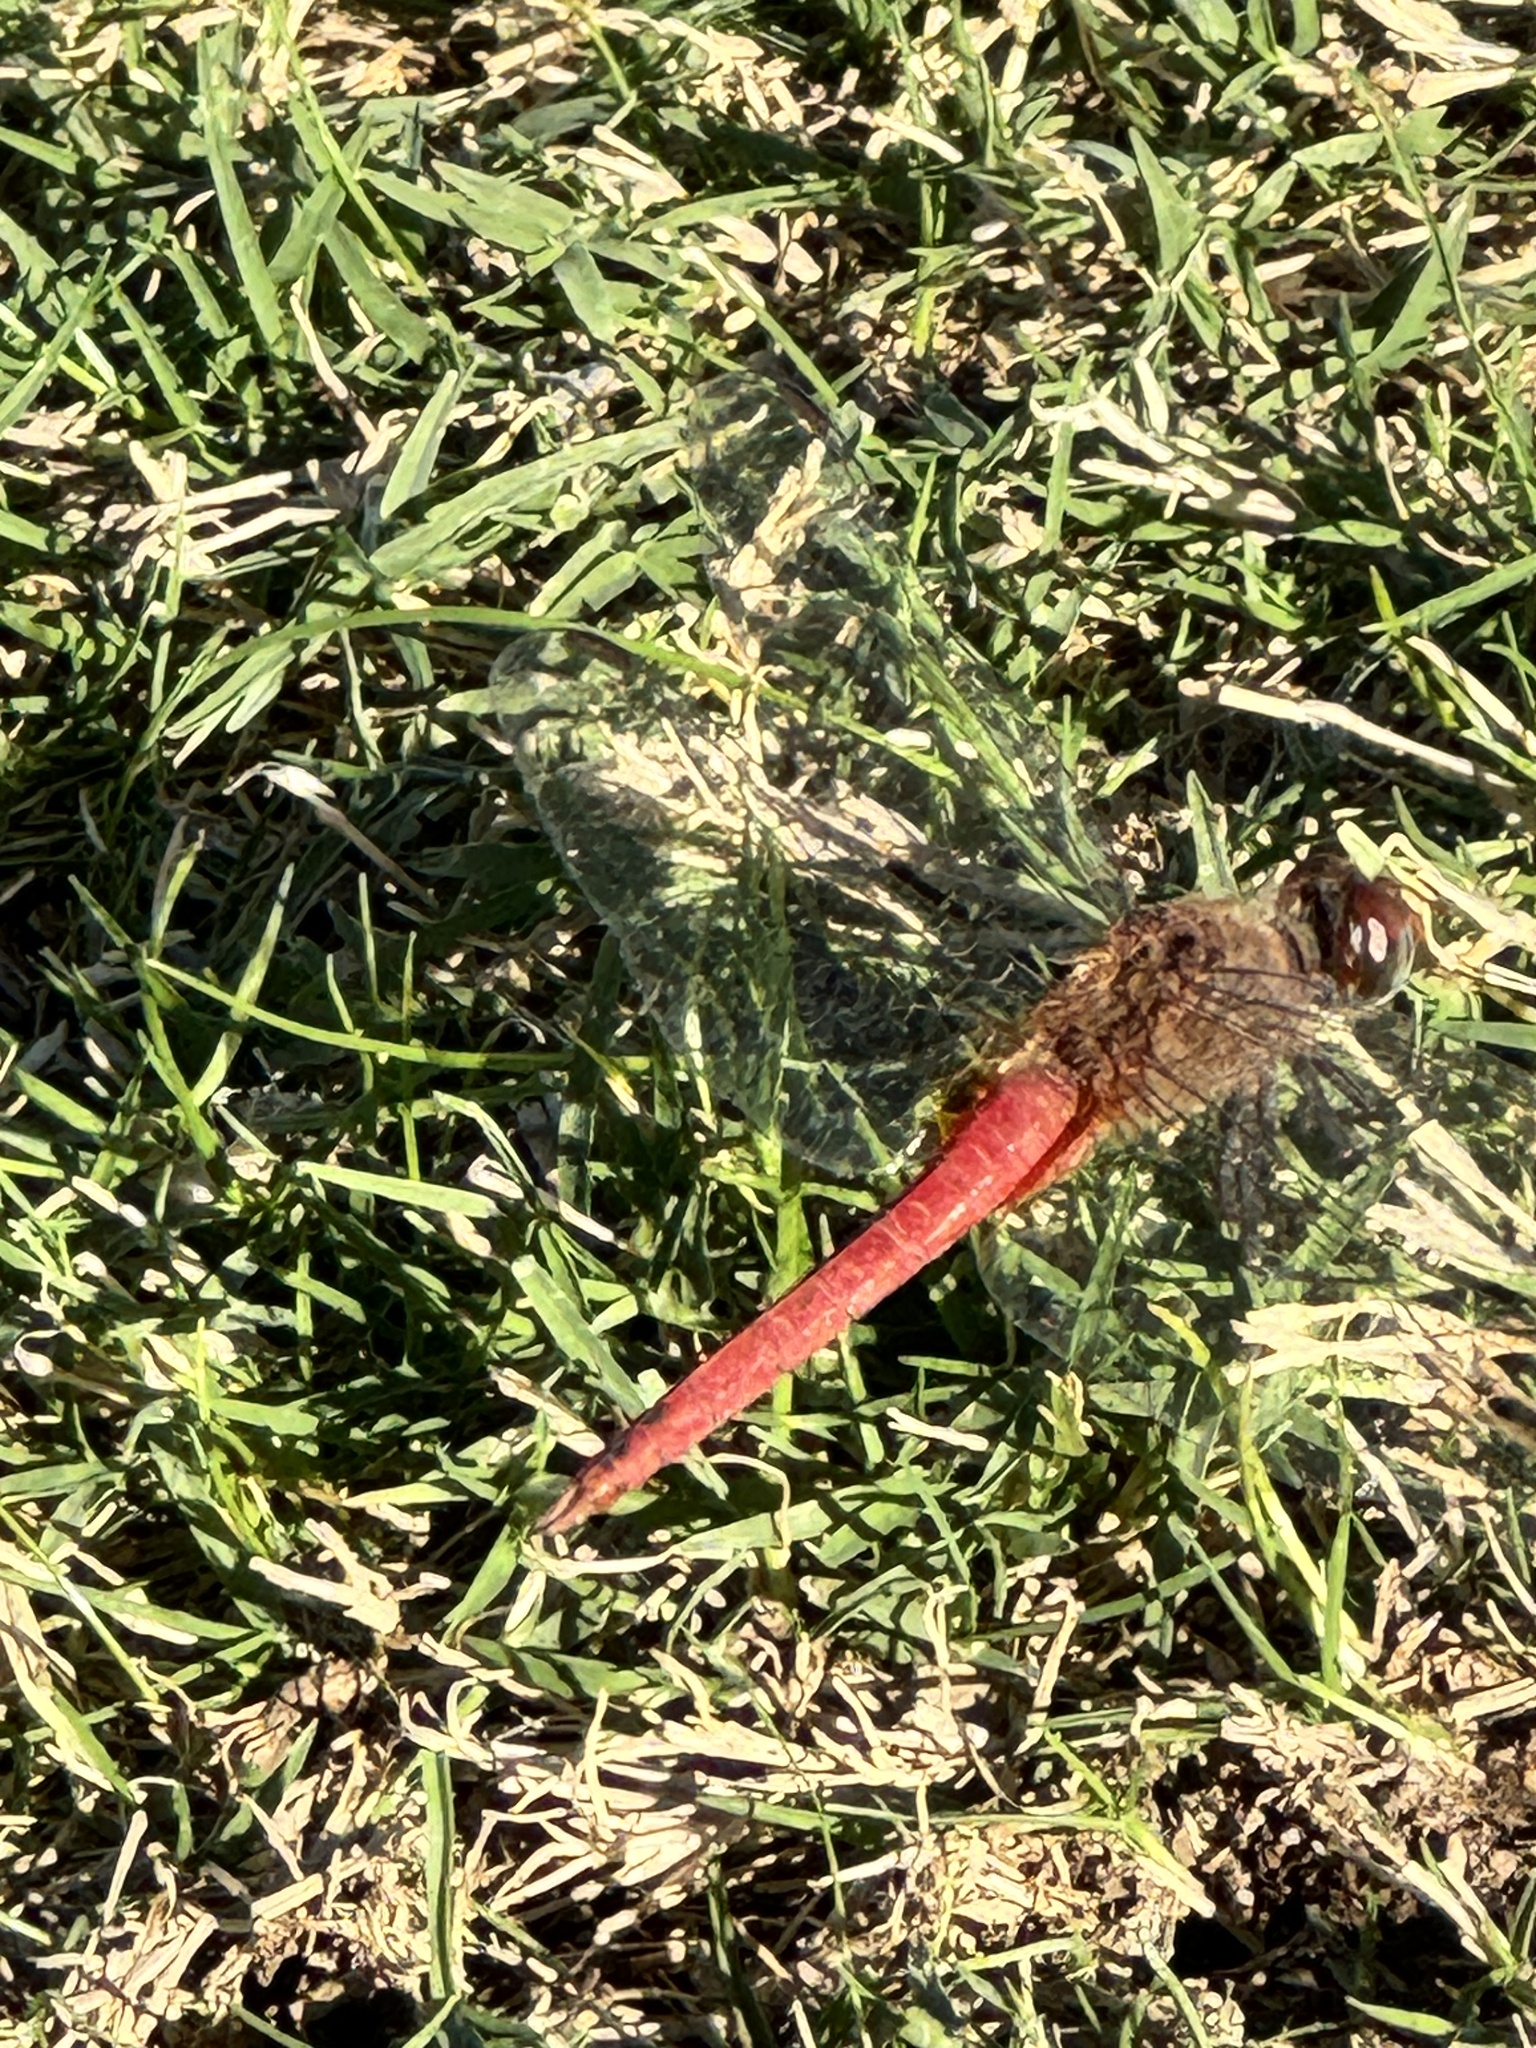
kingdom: Animalia
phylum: Arthropoda
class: Insecta
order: Odonata
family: Libellulidae
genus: Brachymesia
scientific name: Brachymesia furcata
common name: Red-taled pennant
